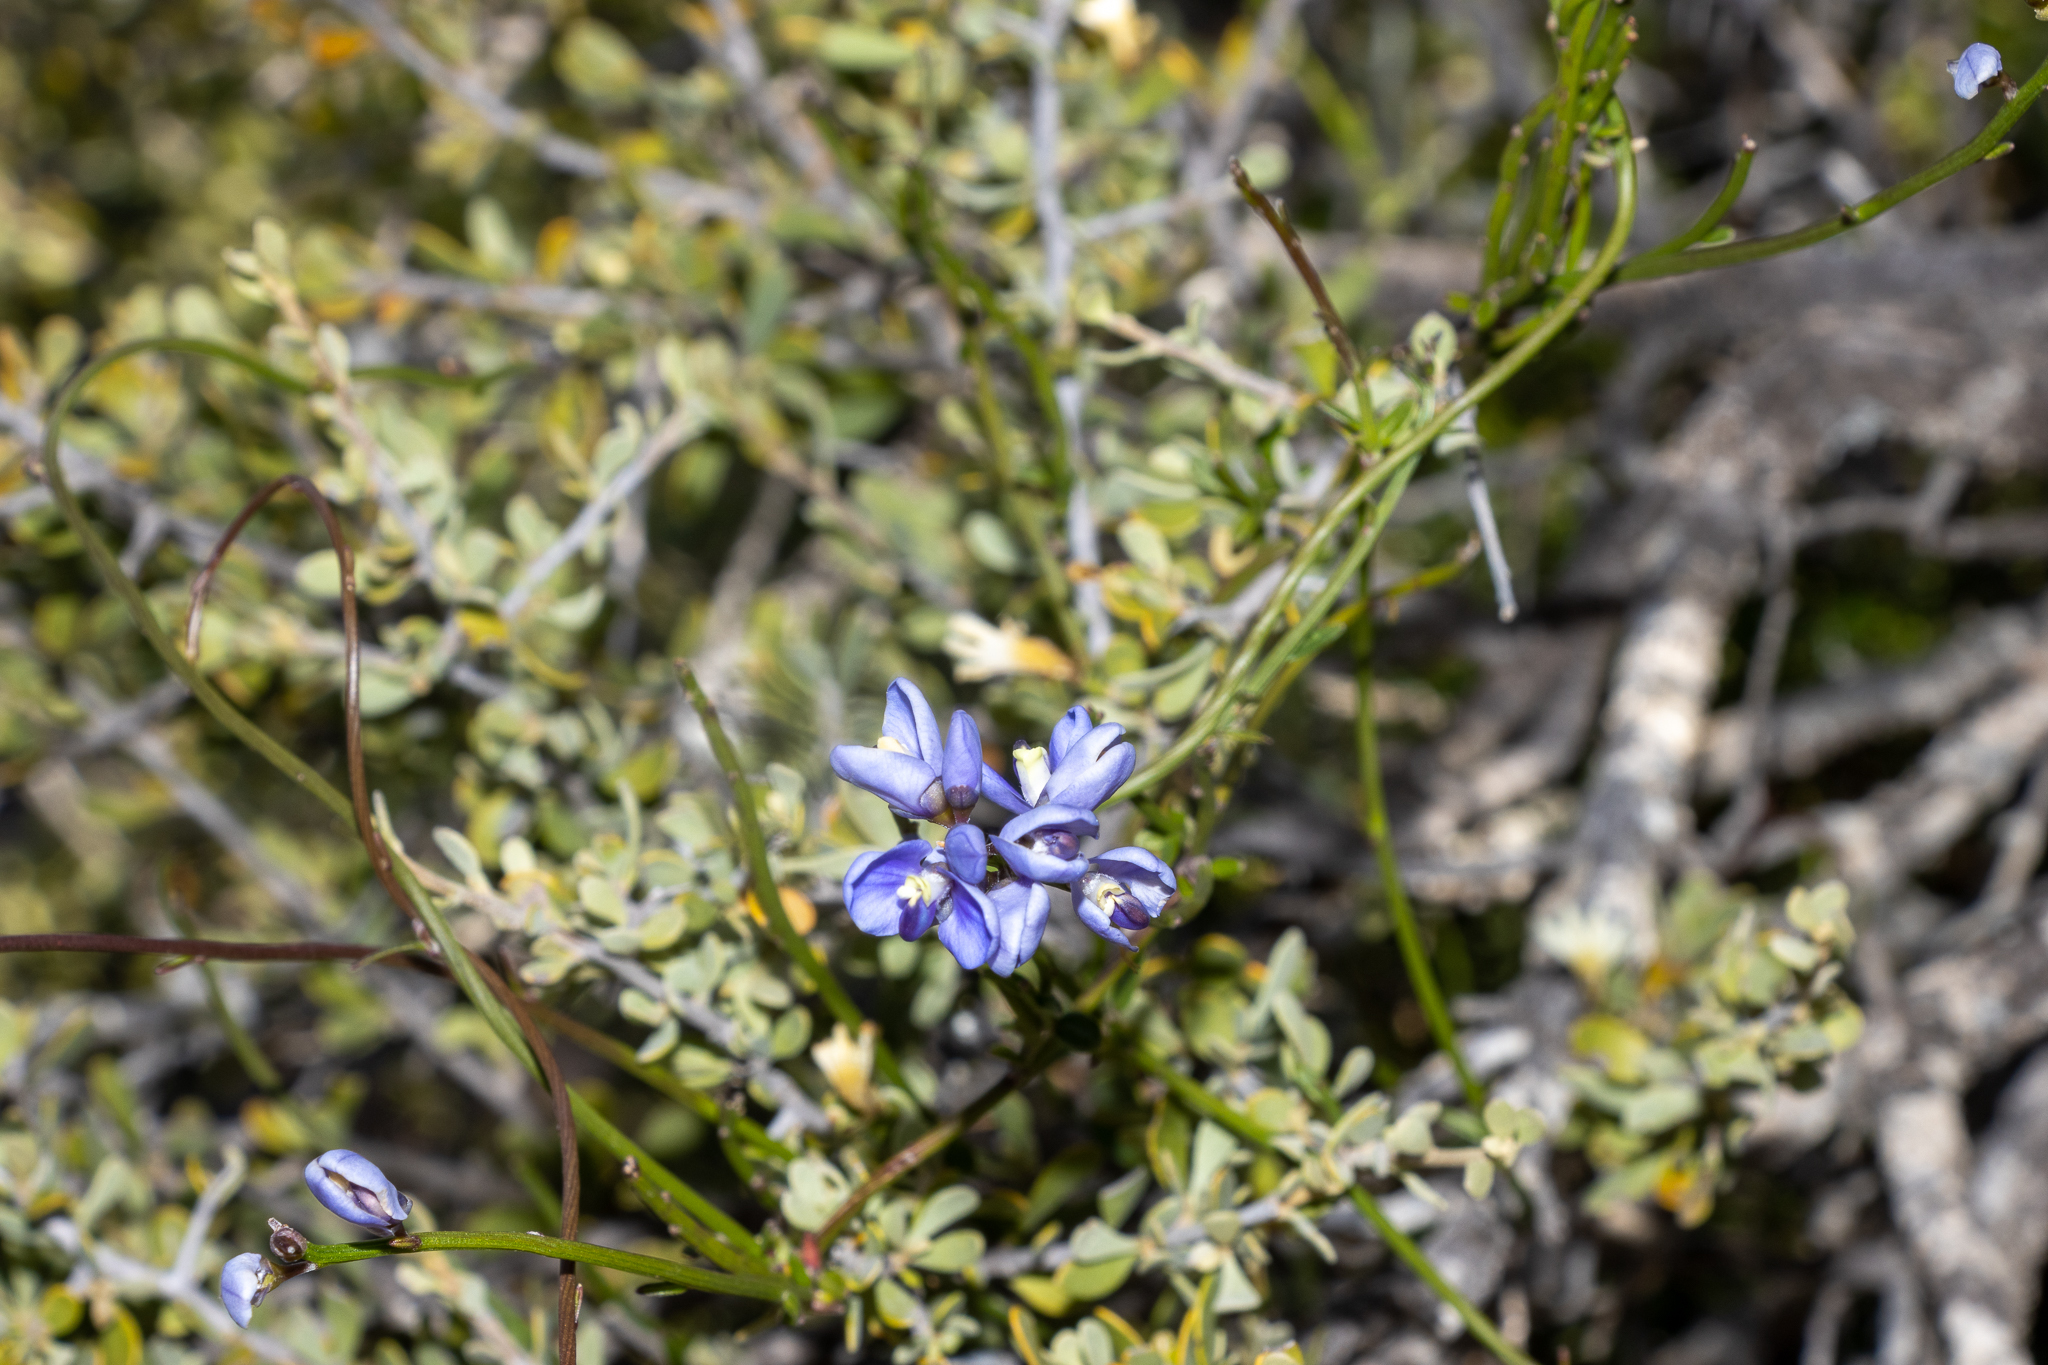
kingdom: Plantae
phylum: Tracheophyta
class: Magnoliopsida
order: Fabales
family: Polygalaceae
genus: Comesperma
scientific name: Comesperma volubile
